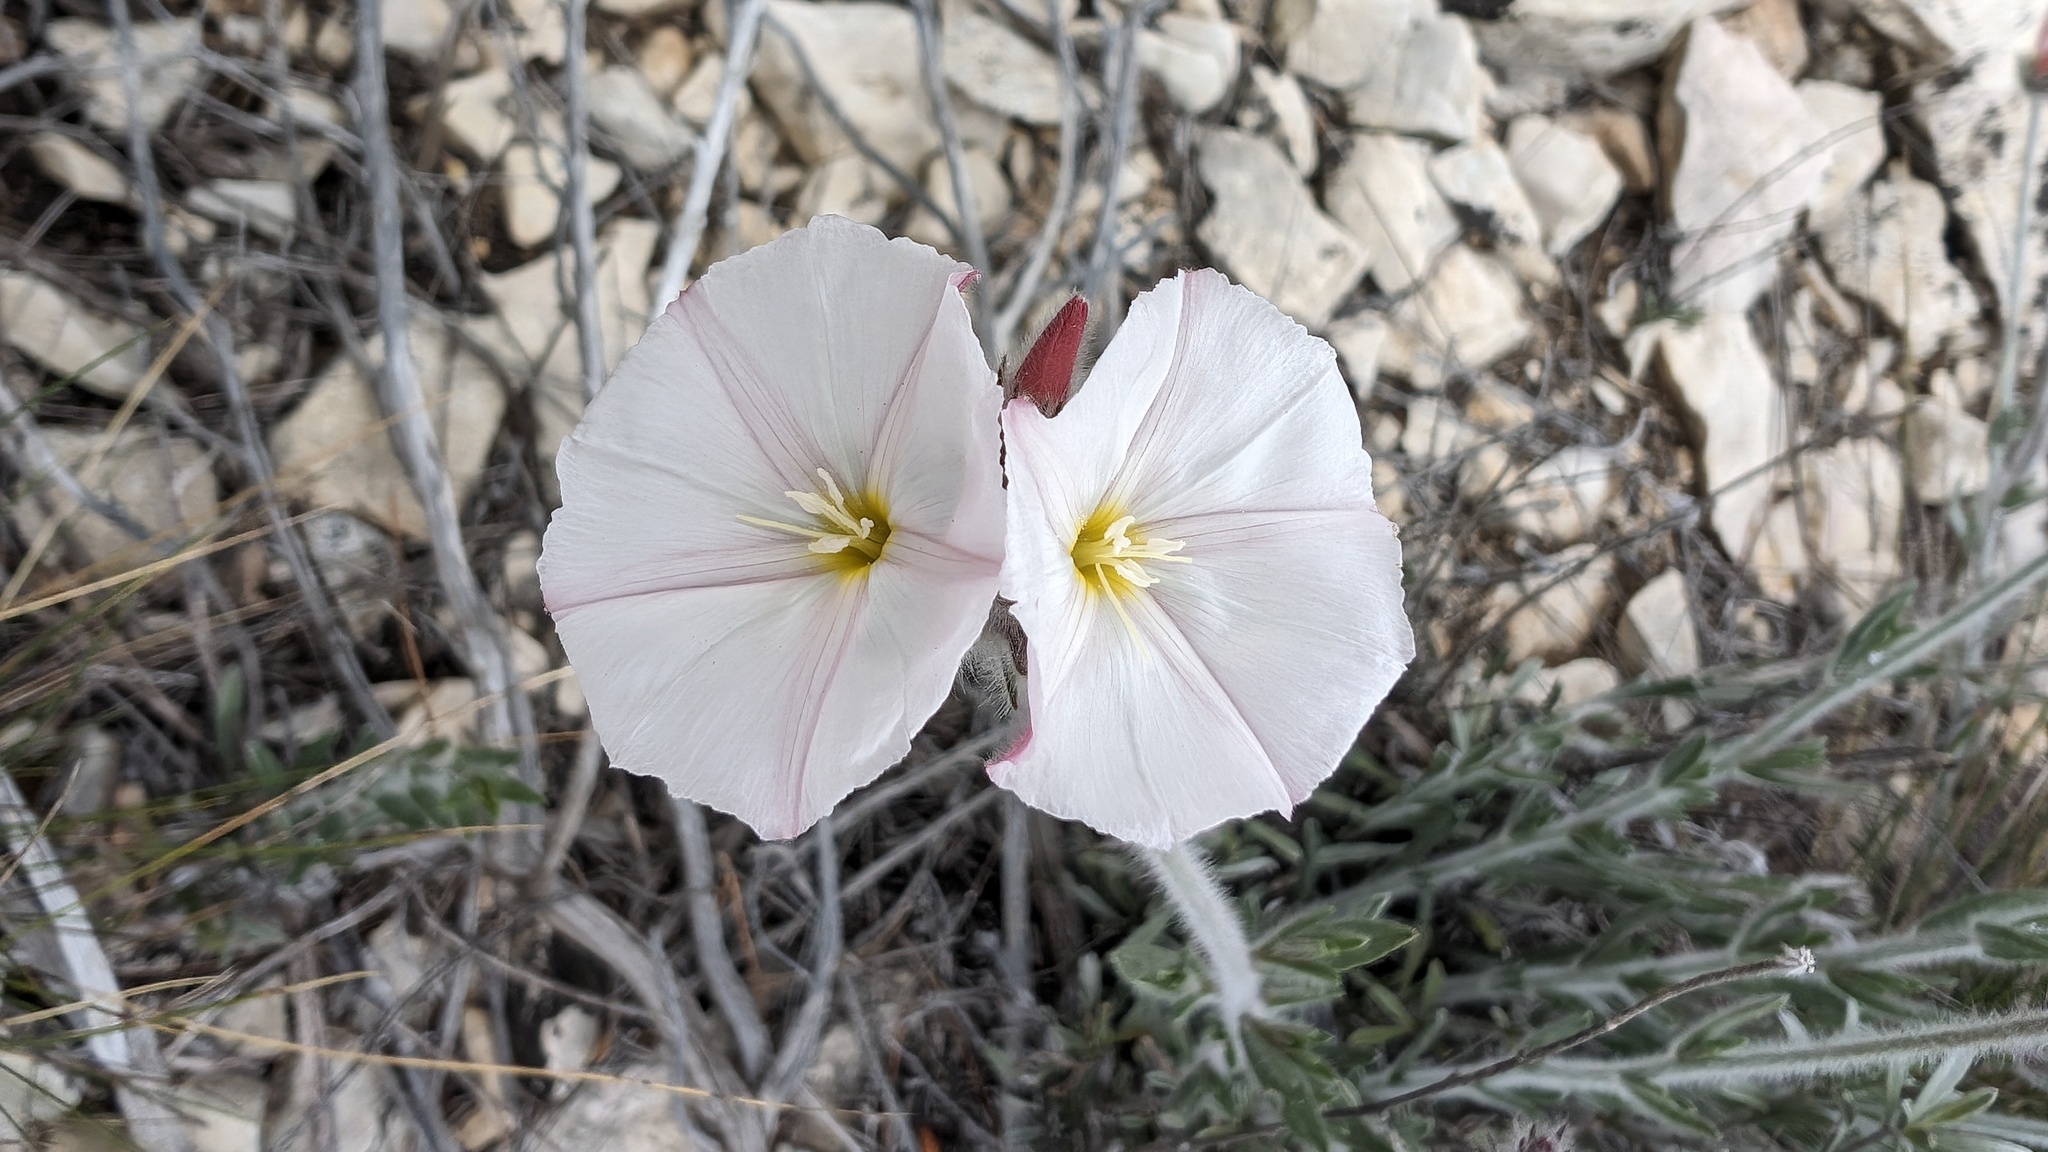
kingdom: Plantae
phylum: Tracheophyta
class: Magnoliopsida
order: Solanales
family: Convolvulaceae
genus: Convolvulus
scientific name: Convolvulus lanuginosus
